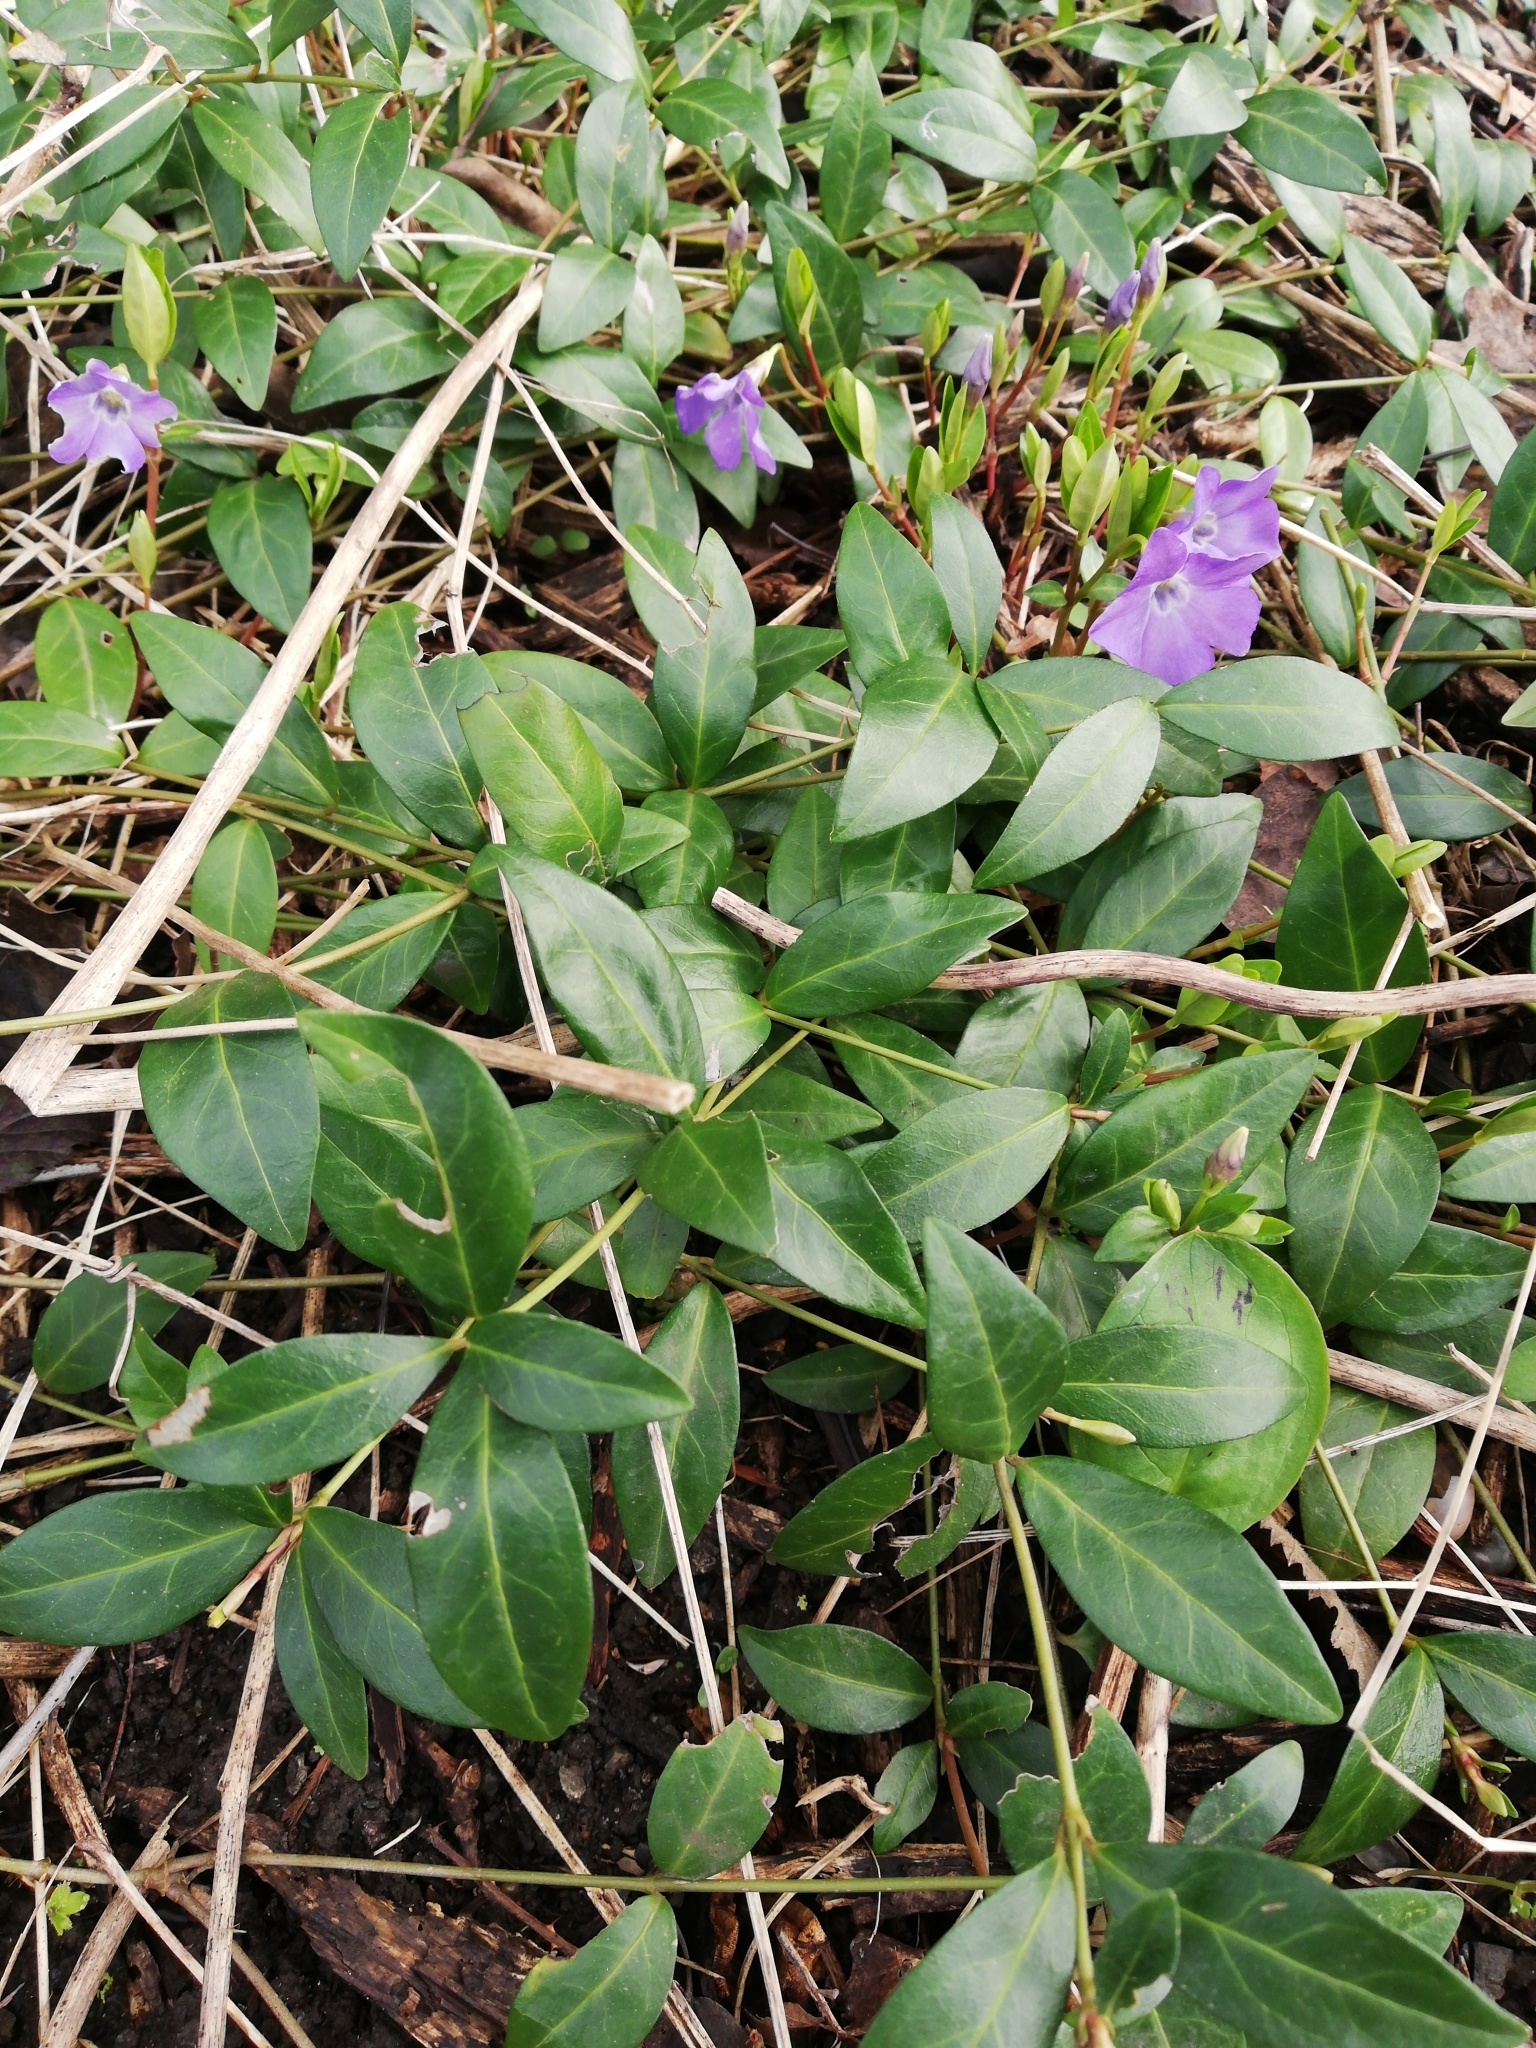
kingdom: Plantae
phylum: Tracheophyta
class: Magnoliopsida
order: Gentianales
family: Apocynaceae
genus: Vinca
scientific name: Vinca minor
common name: Lesser periwinkle
